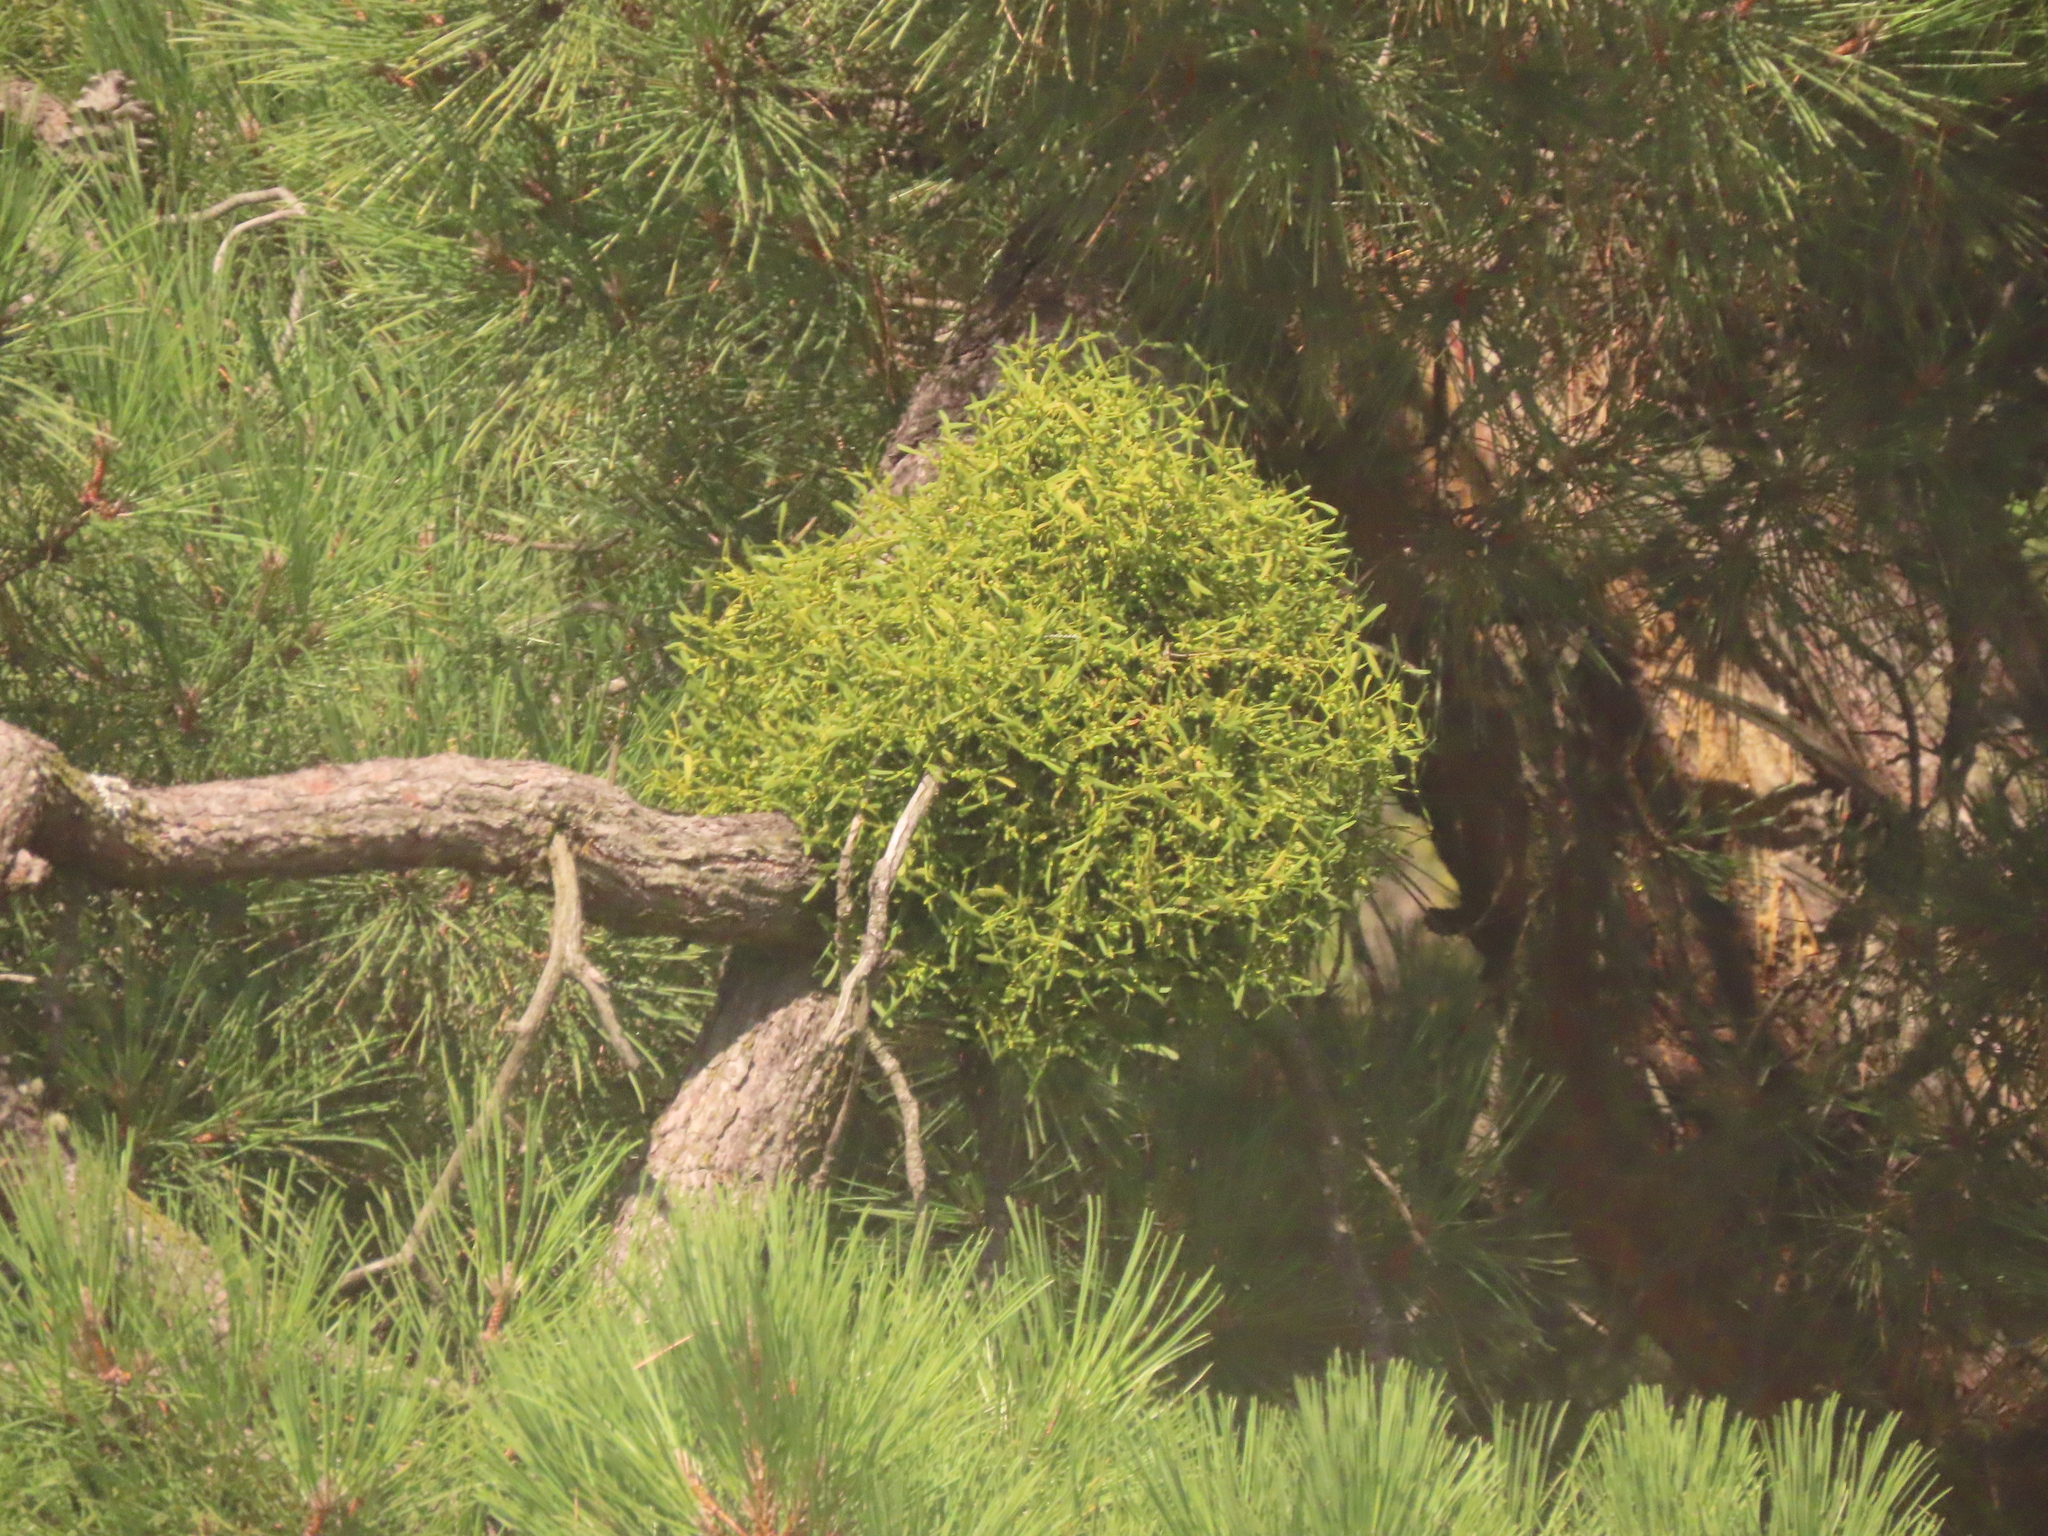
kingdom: Plantae
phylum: Tracheophyta
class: Magnoliopsida
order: Santalales
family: Viscaceae
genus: Viscum
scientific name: Viscum album
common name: Mistletoe
